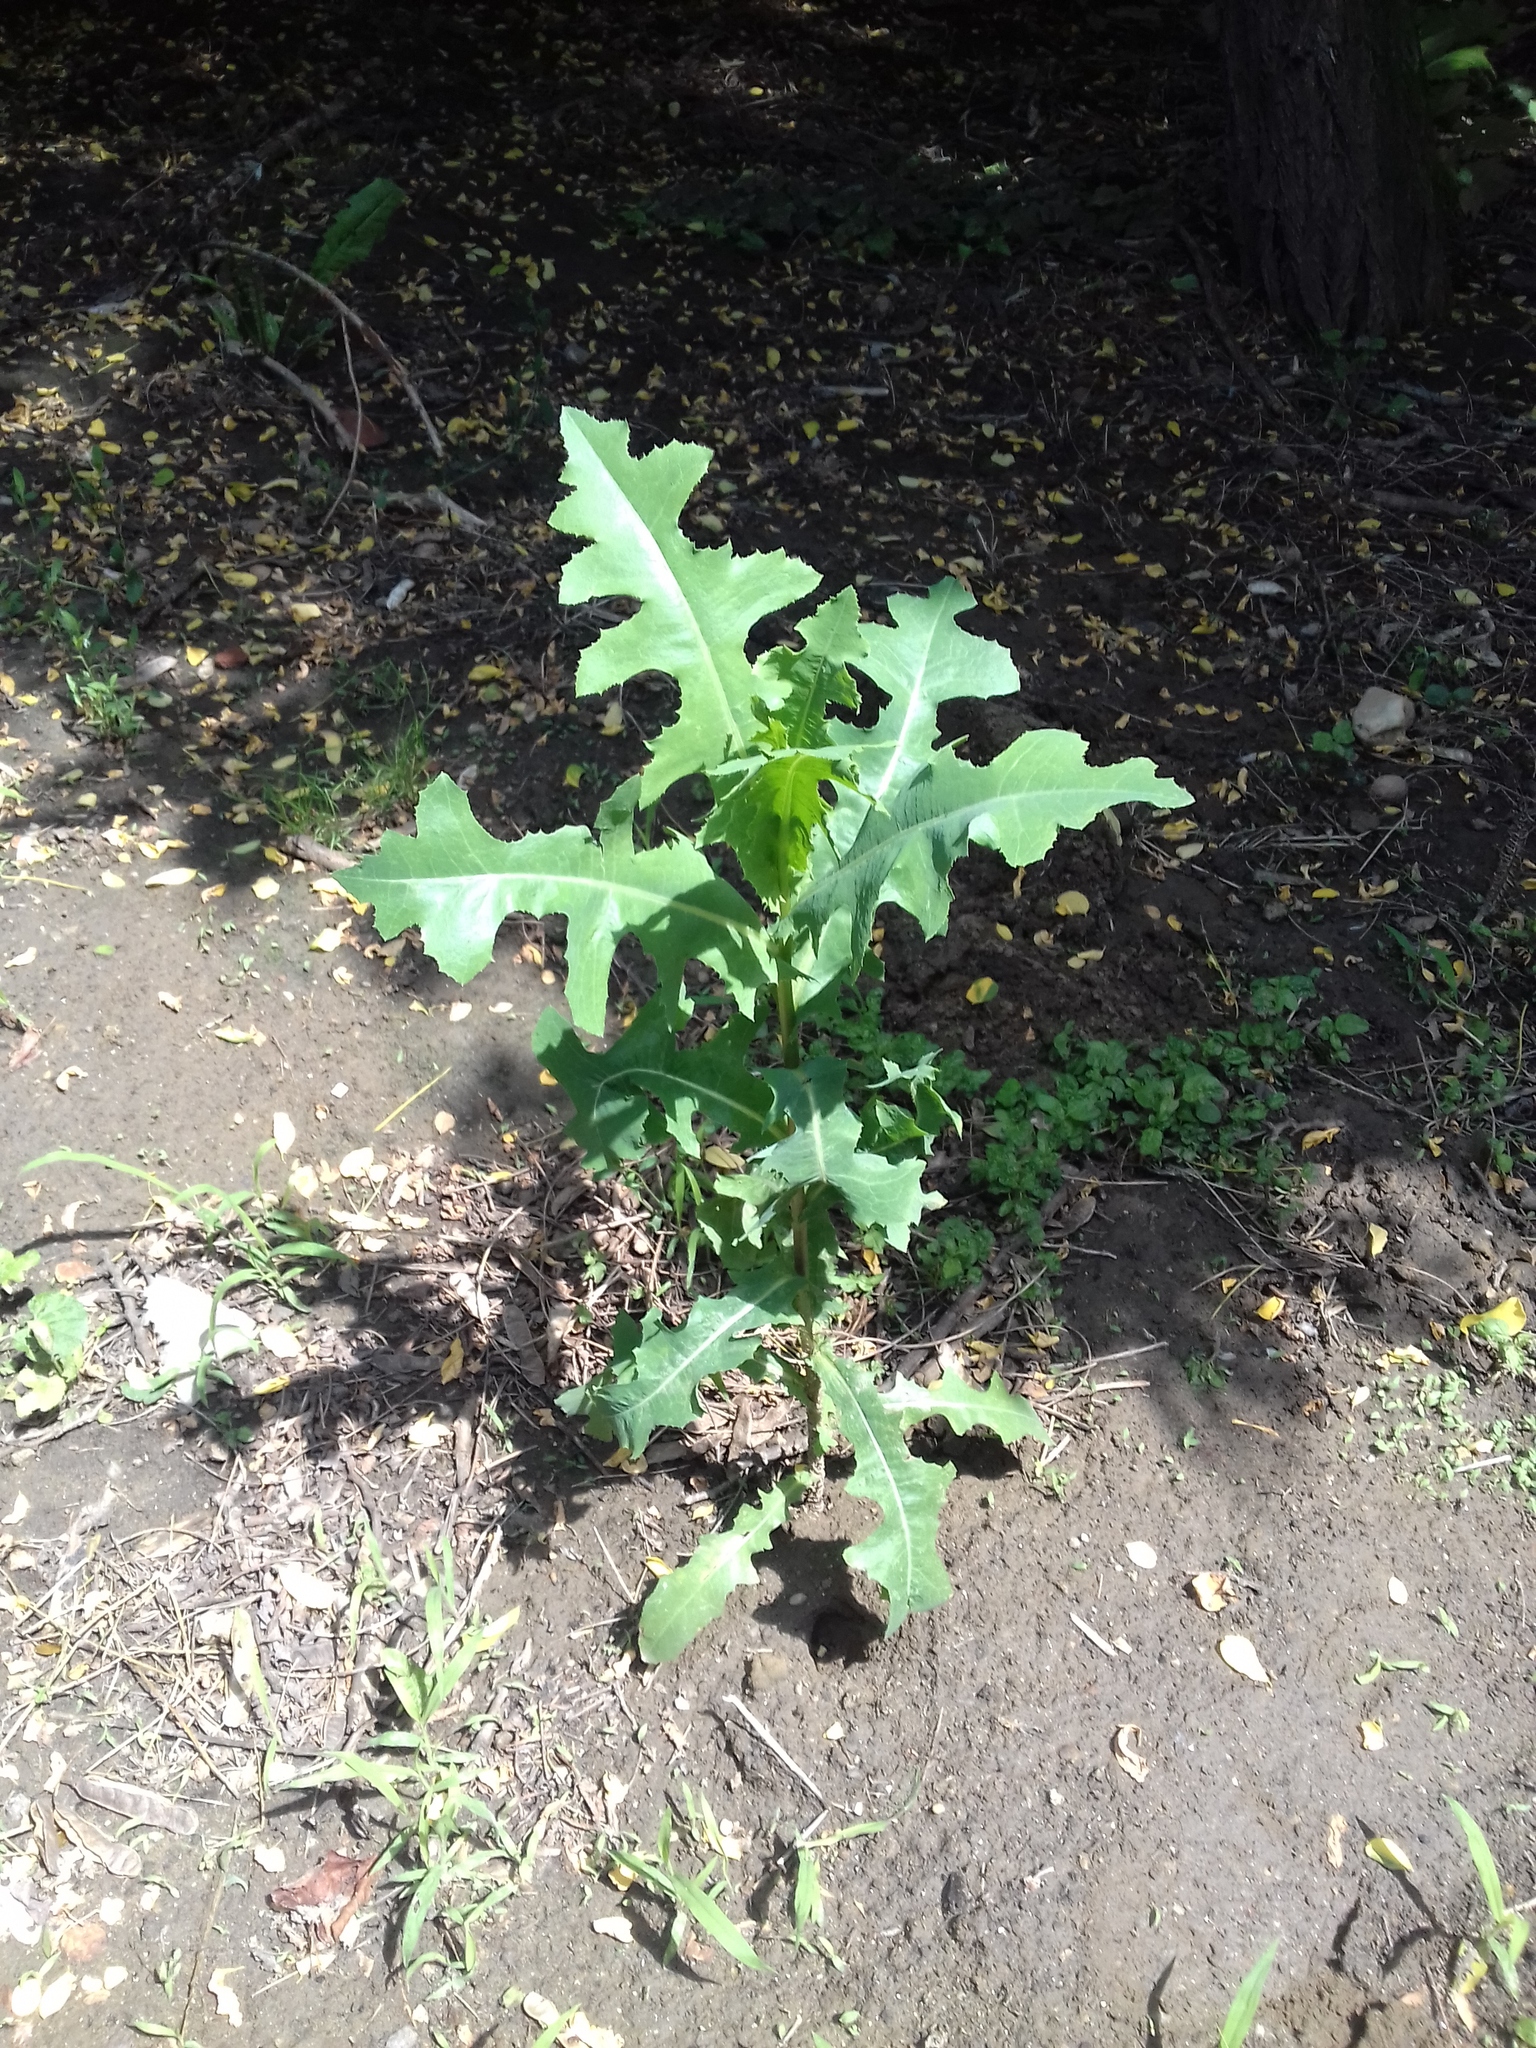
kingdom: Plantae
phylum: Tracheophyta
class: Magnoliopsida
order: Asterales
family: Asteraceae
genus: Lactuca
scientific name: Lactuca serriola
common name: Prickly lettuce
